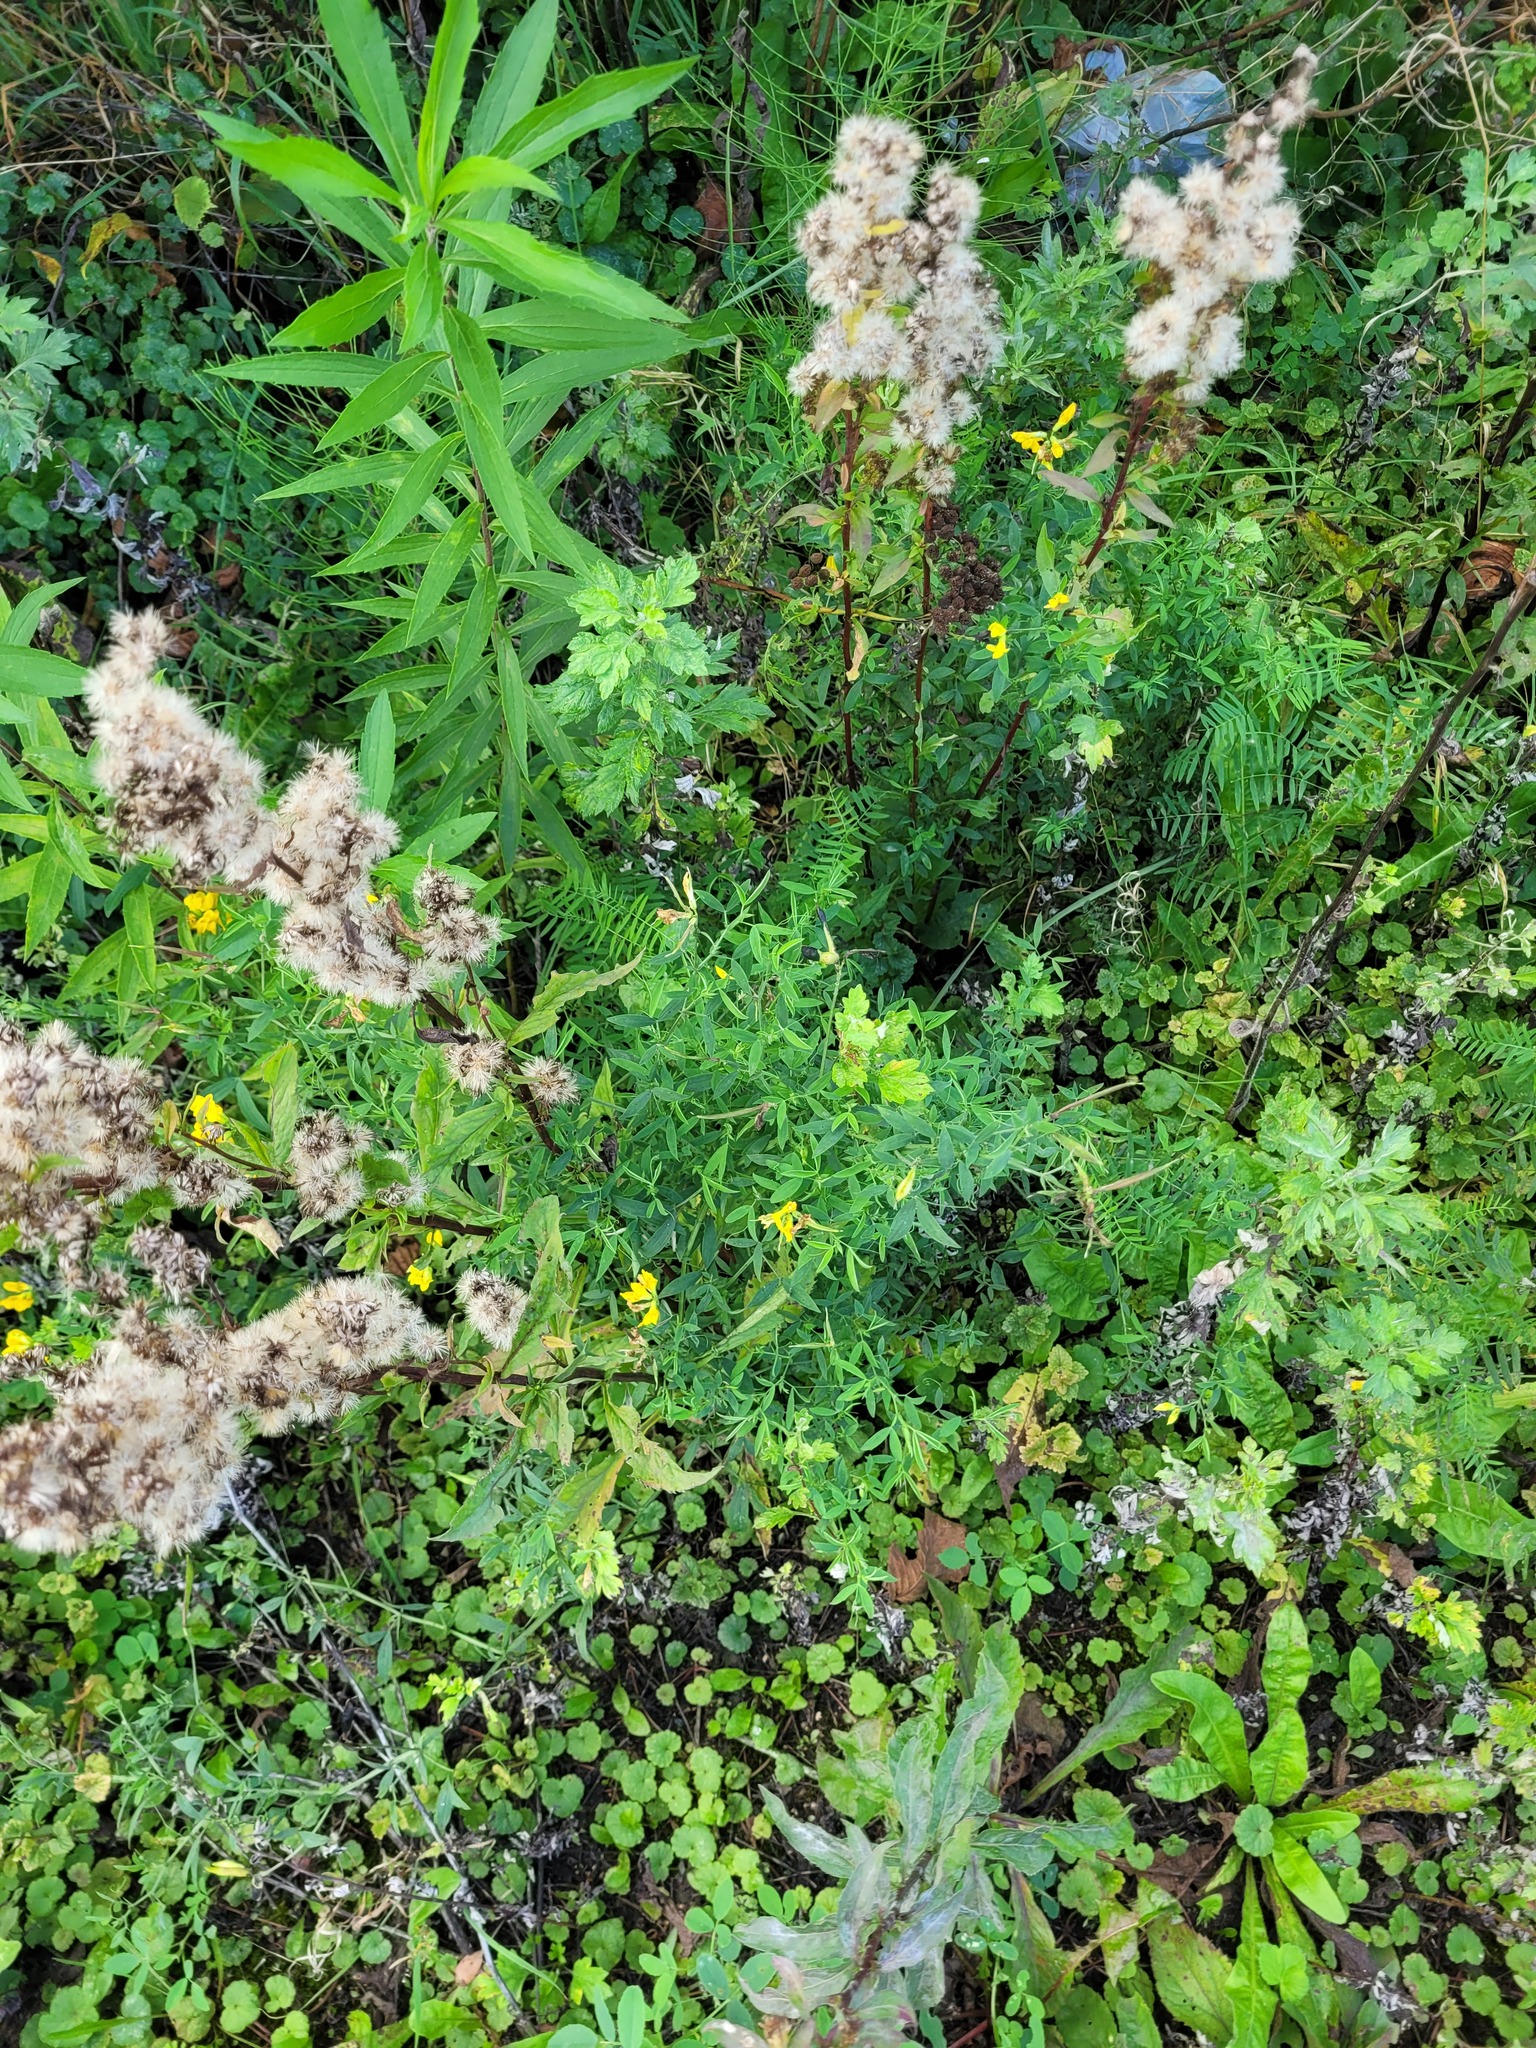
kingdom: Plantae
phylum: Tracheophyta
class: Magnoliopsida
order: Fabales
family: Fabaceae
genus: Lathyrus
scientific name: Lathyrus pratensis
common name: Meadow vetchling
